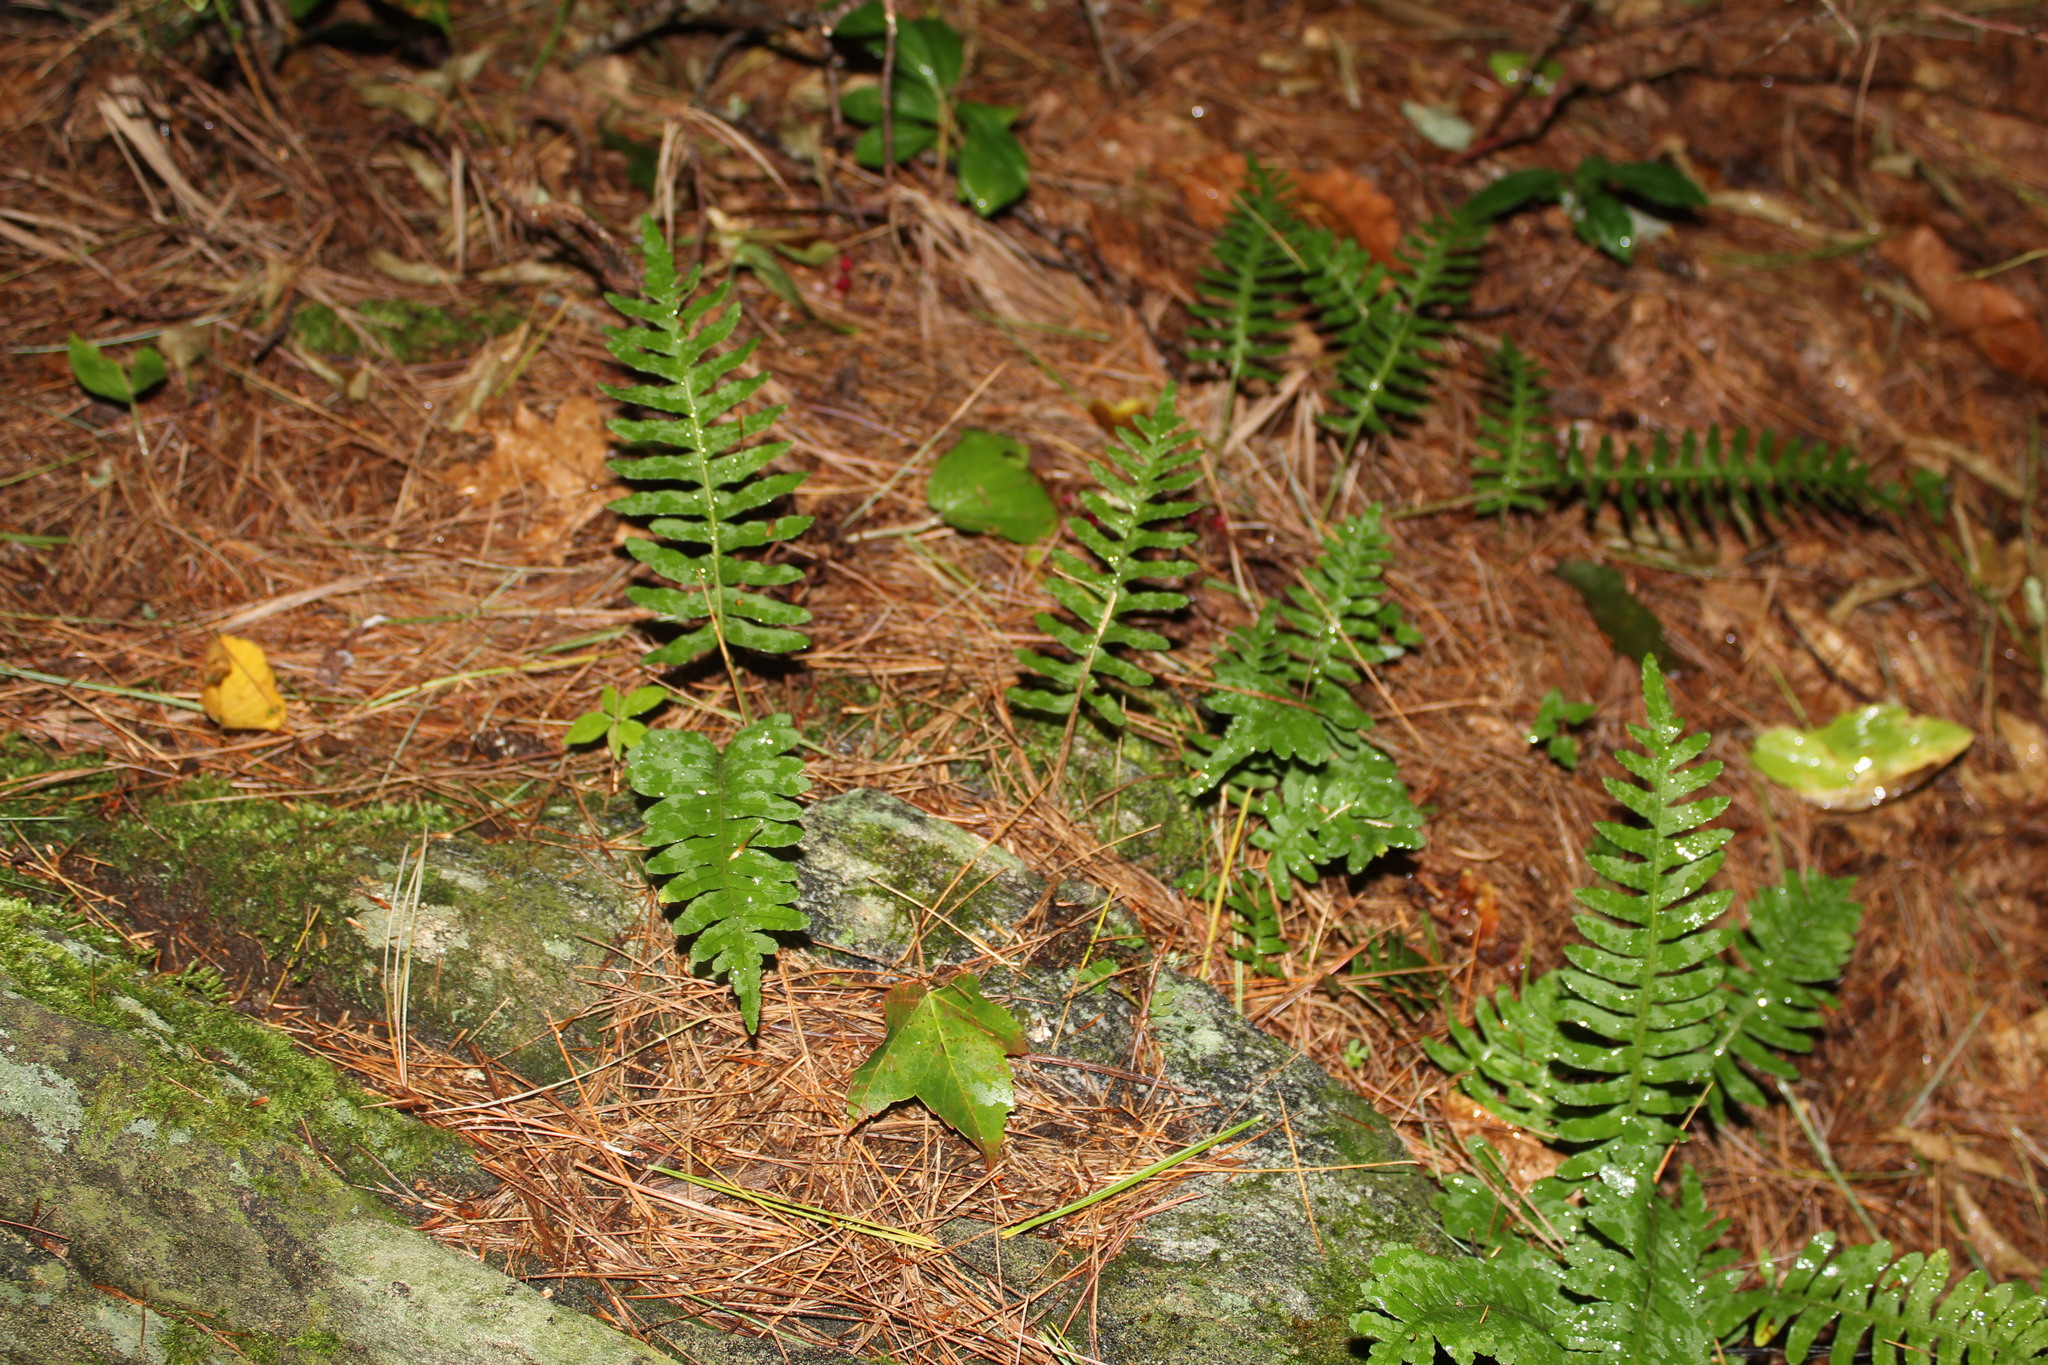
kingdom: Plantae
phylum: Tracheophyta
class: Polypodiopsida
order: Polypodiales
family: Polypodiaceae
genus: Polypodium
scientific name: Polypodium virginianum
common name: American wall fern
